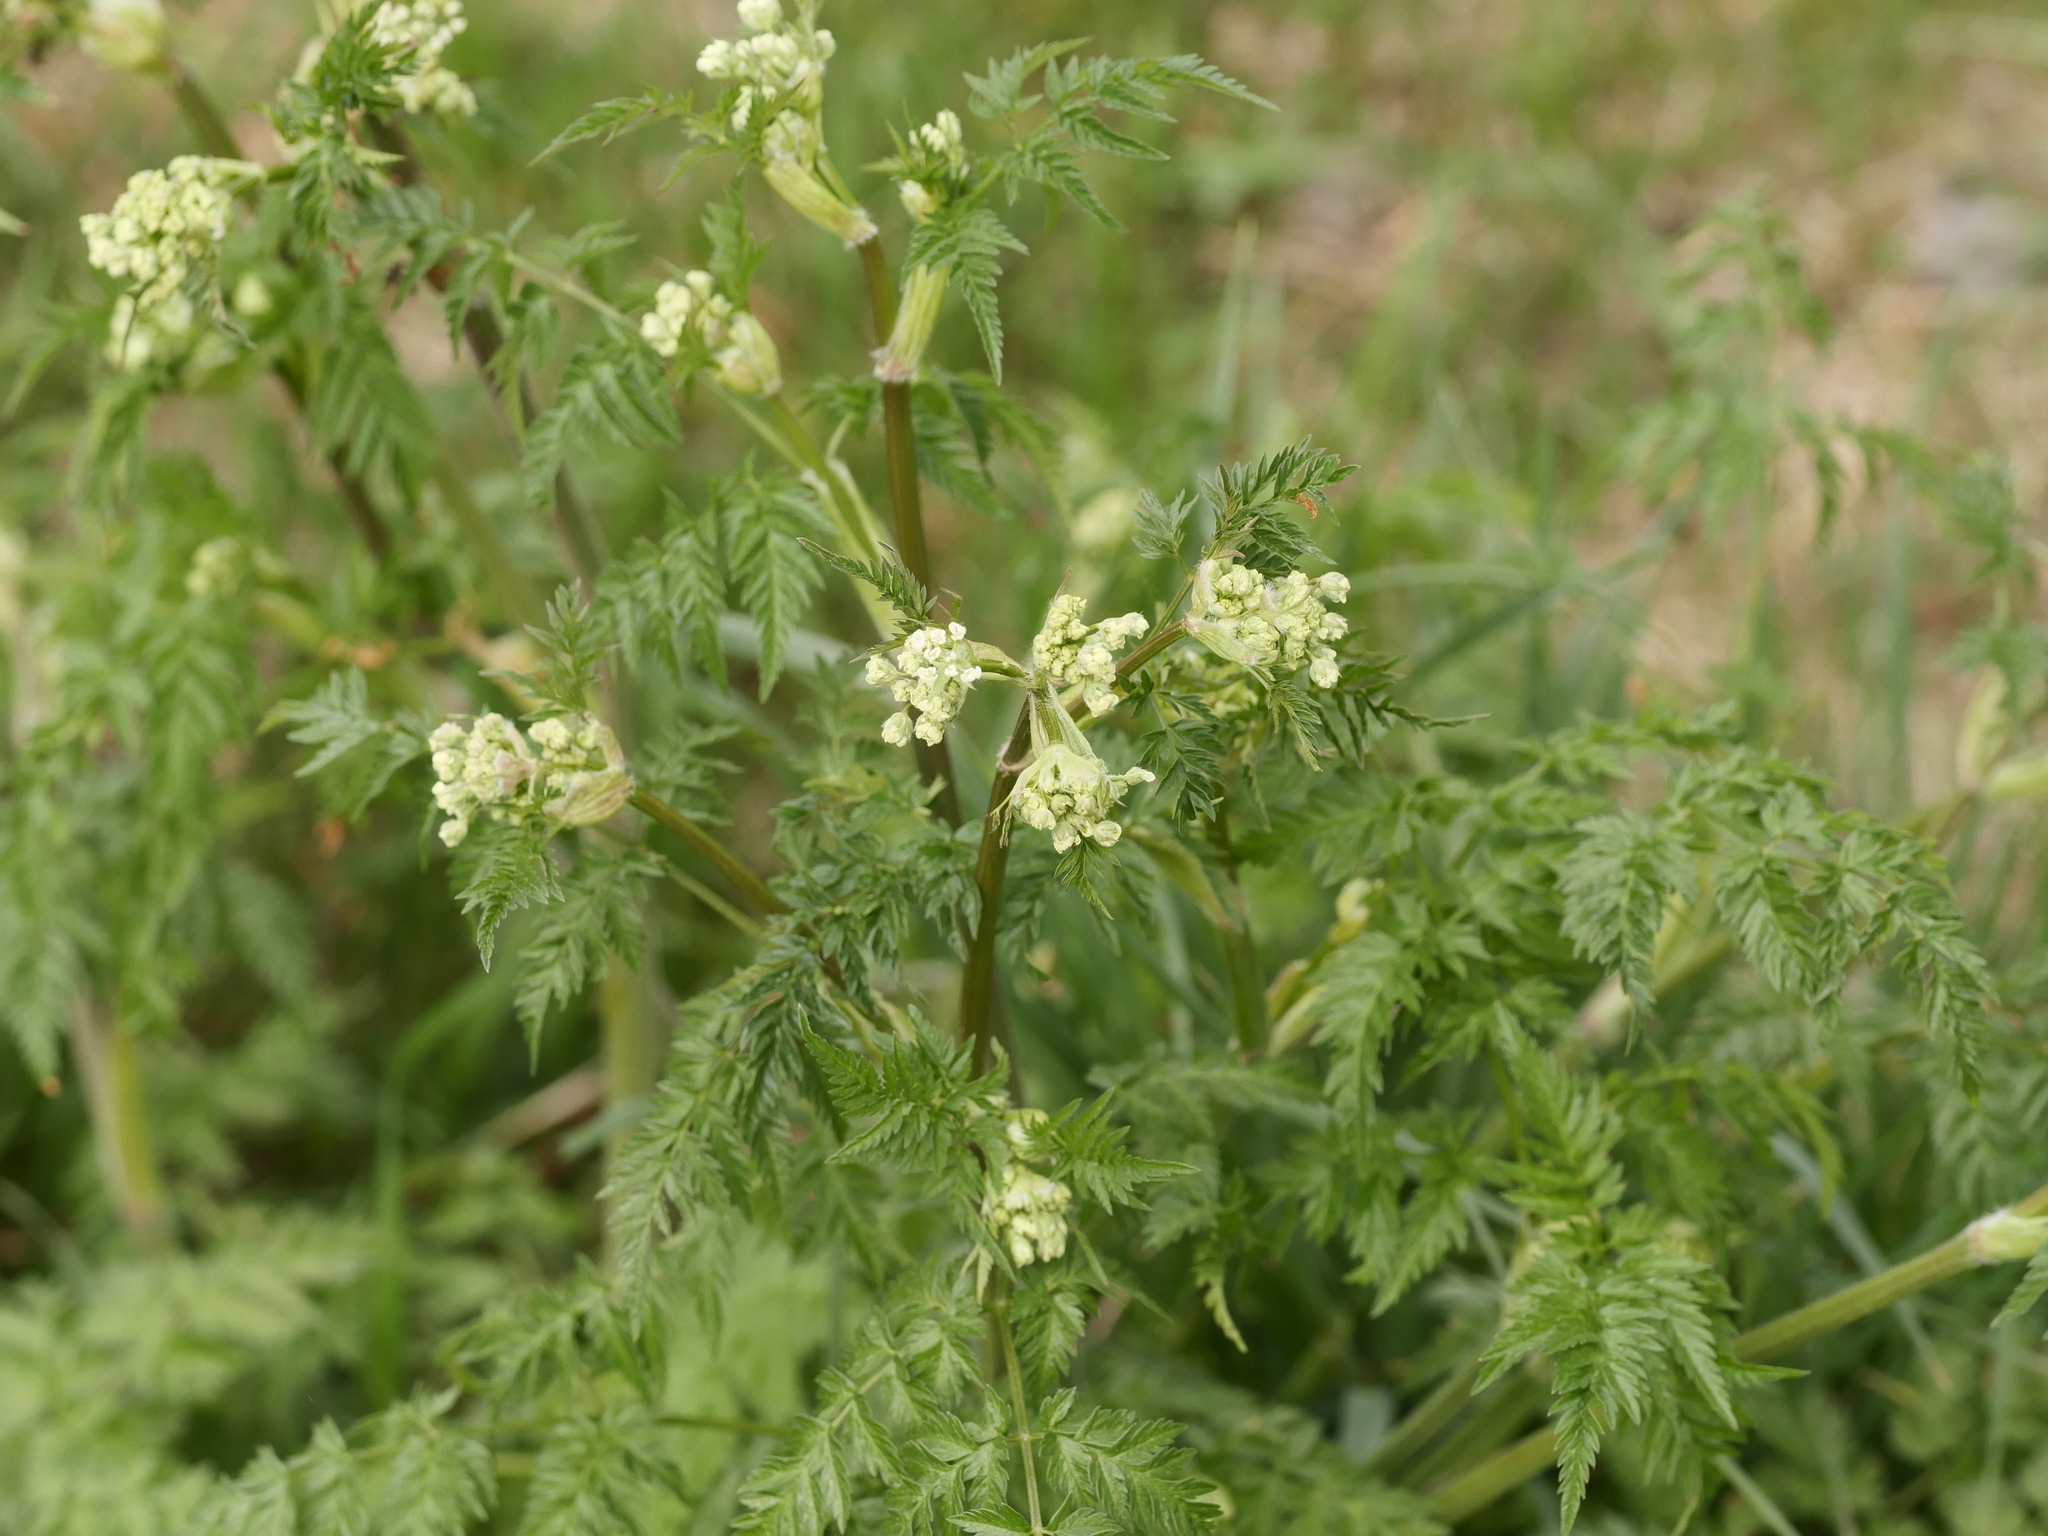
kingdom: Plantae
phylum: Tracheophyta
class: Magnoliopsida
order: Apiales
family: Apiaceae
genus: Anthriscus
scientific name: Anthriscus sylvestris
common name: Cow parsley
